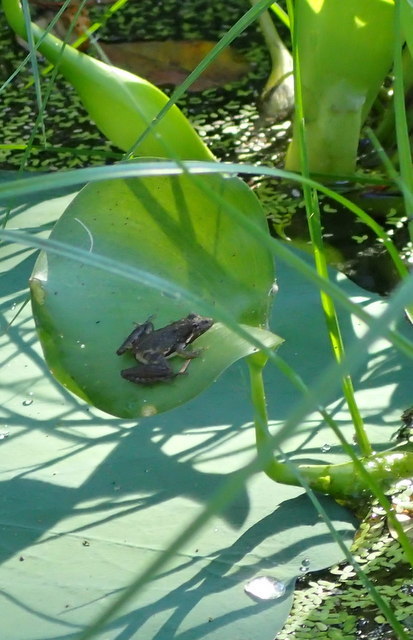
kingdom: Animalia
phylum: Chordata
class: Amphibia
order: Anura
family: Hylidae
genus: Acris
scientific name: Acris gryllus
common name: Southern cricket frog
